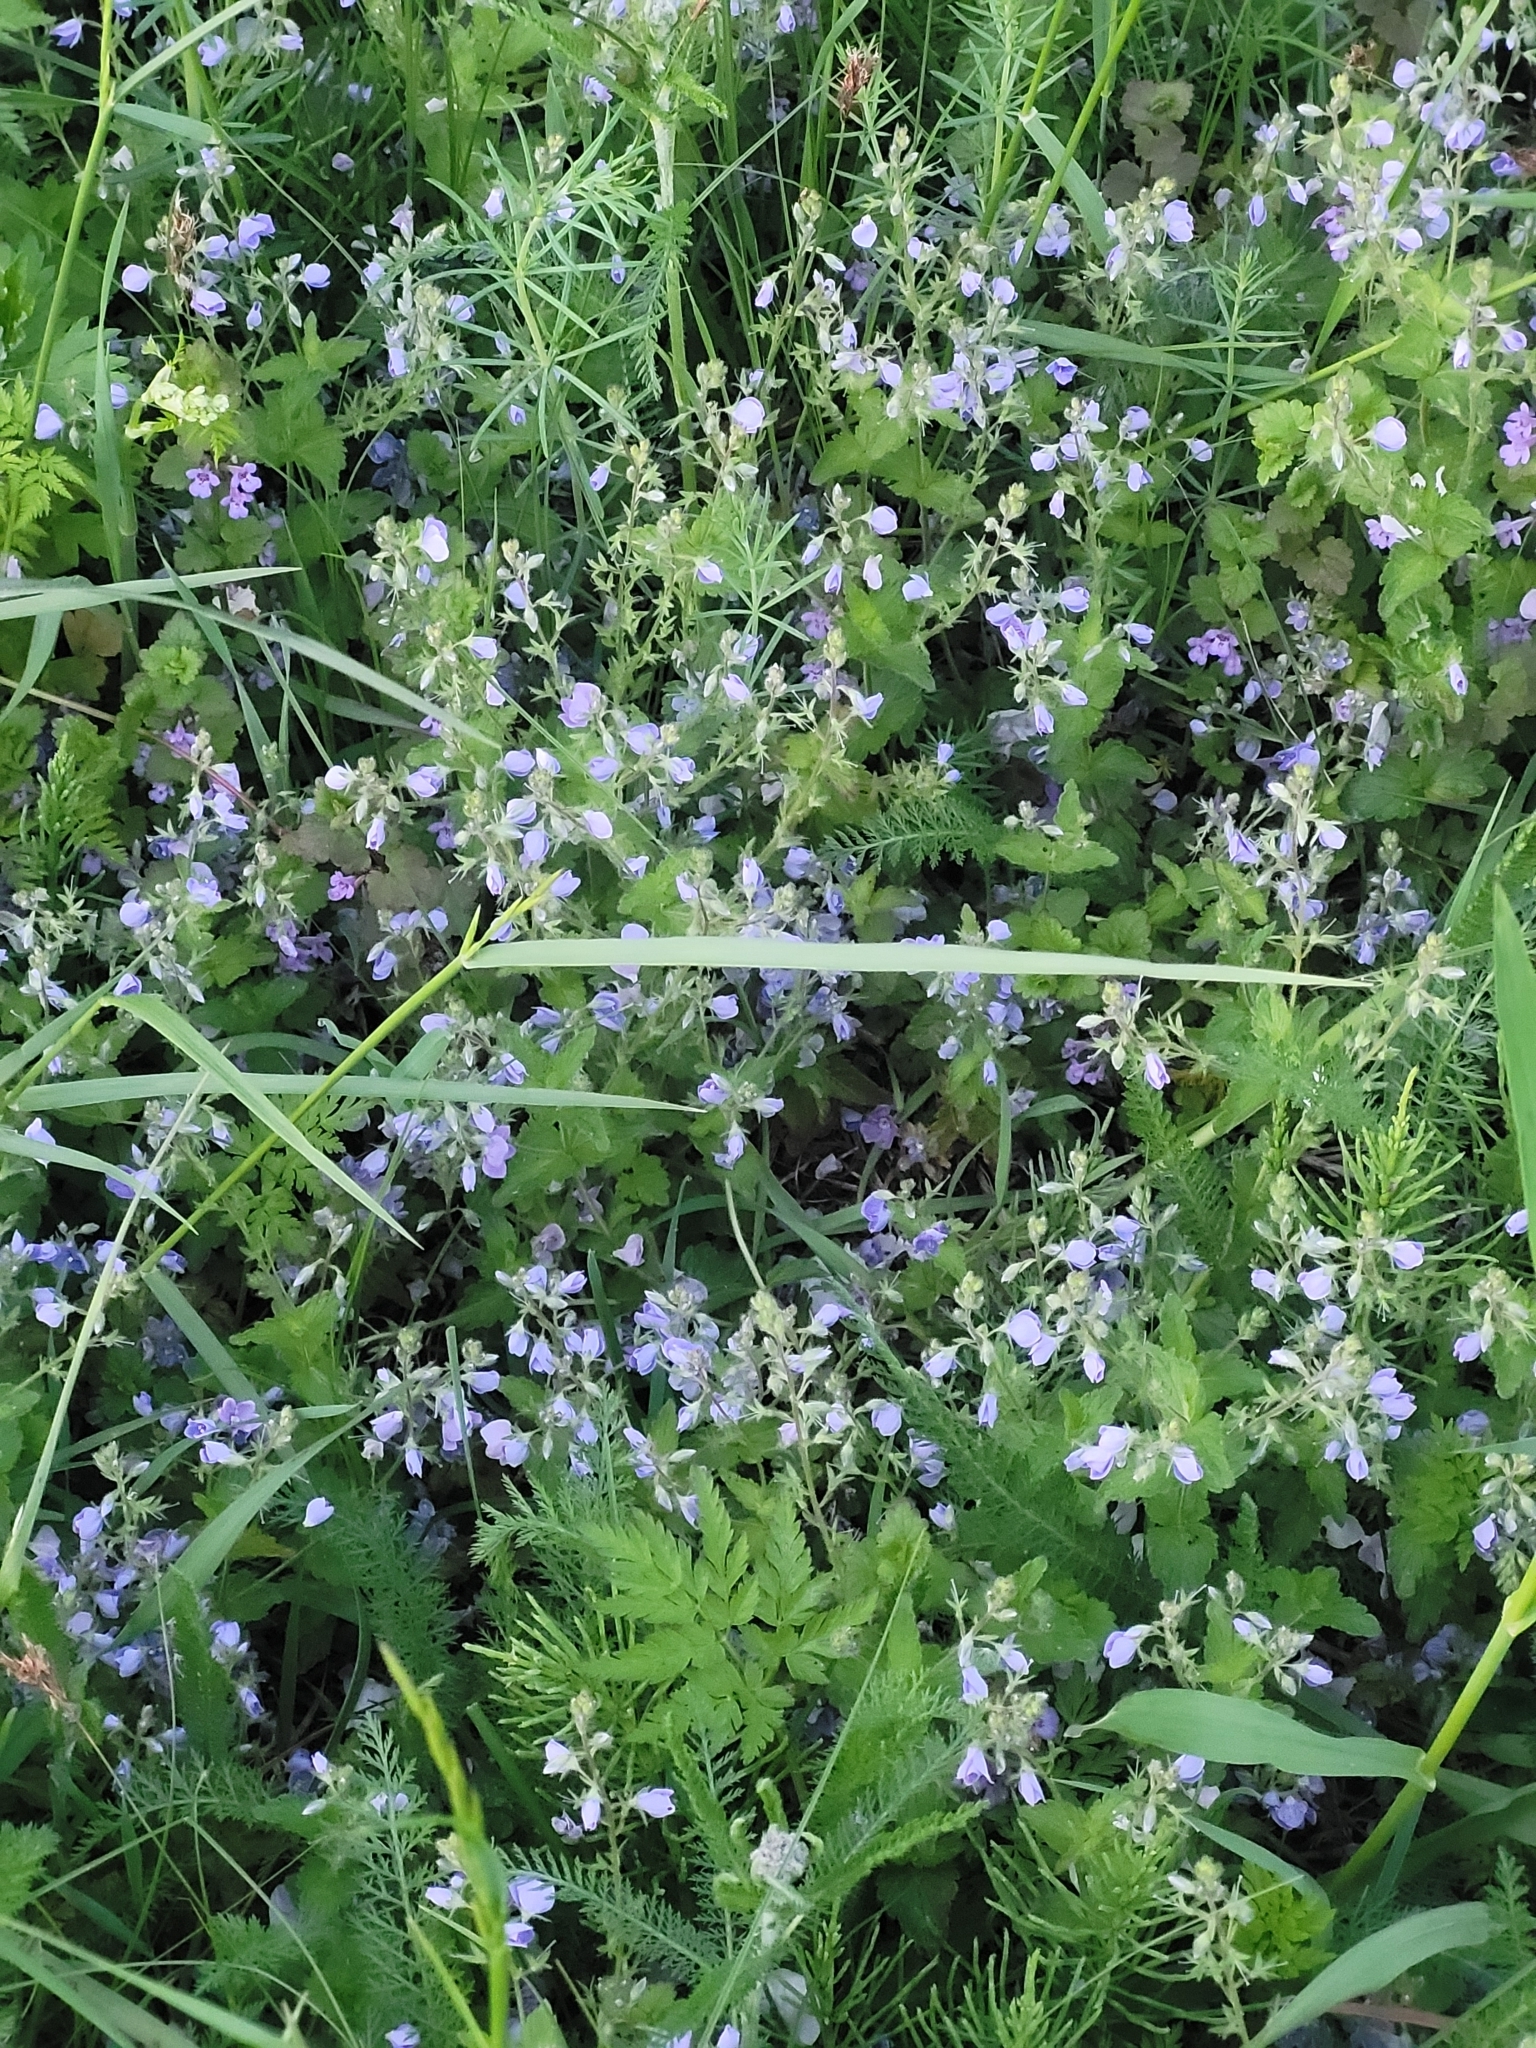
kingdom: Plantae
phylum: Tracheophyta
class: Magnoliopsida
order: Lamiales
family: Plantaginaceae
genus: Veronica
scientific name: Veronica chamaedrys
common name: Germander speedwell
